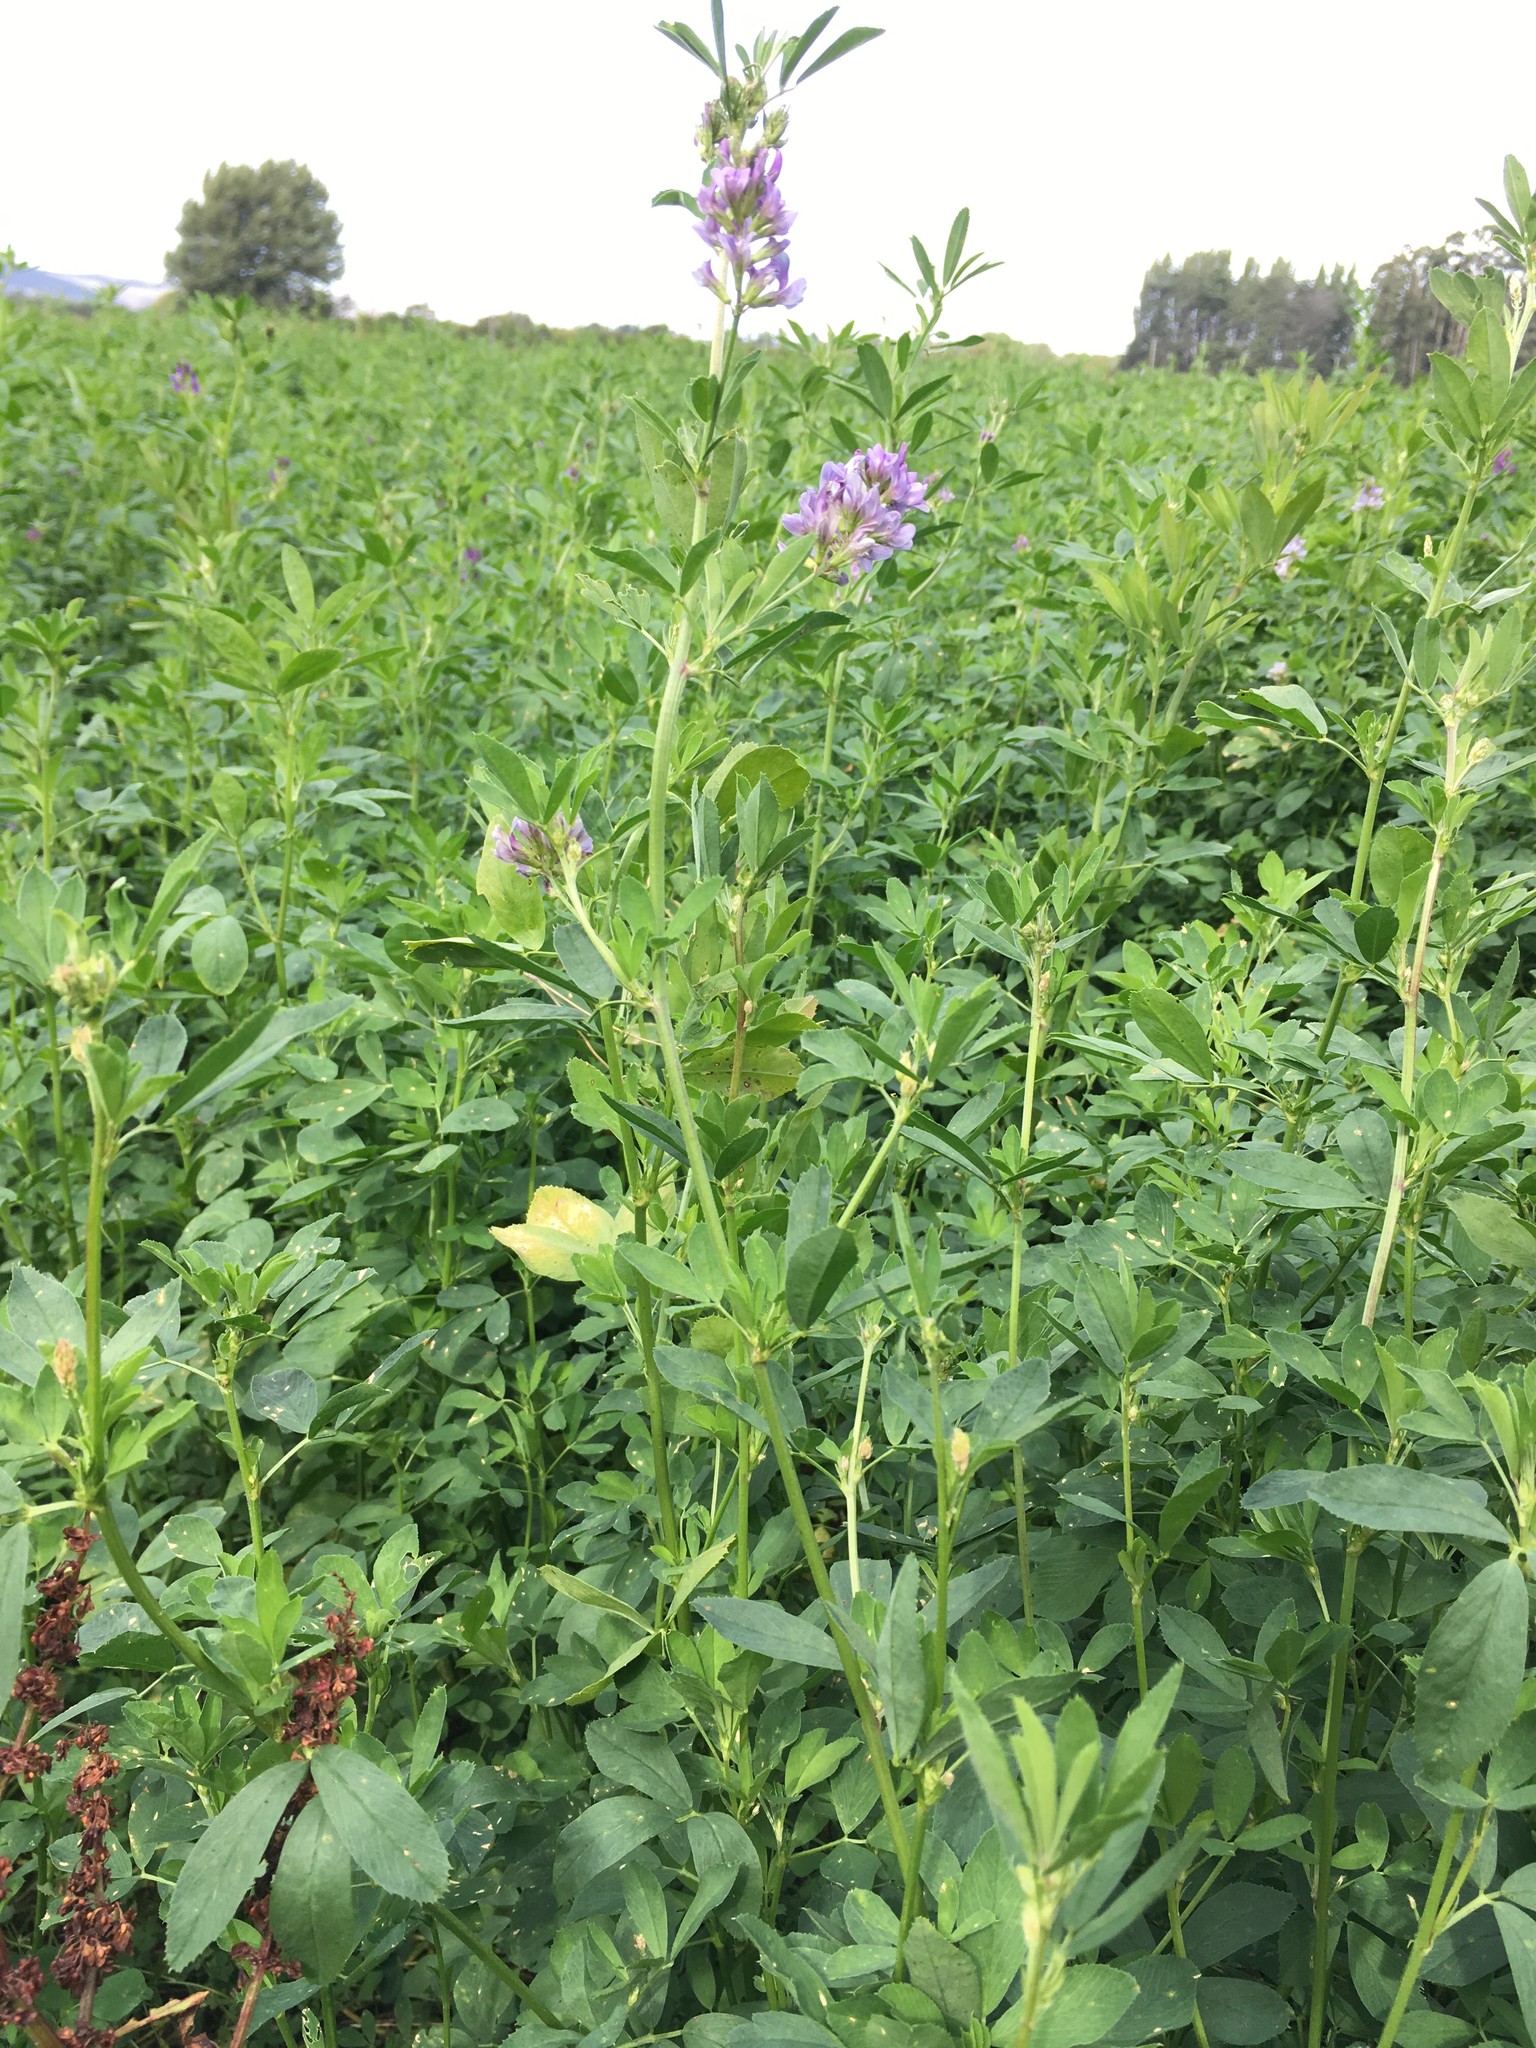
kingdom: Plantae
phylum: Tracheophyta
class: Magnoliopsida
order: Fabales
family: Fabaceae
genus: Medicago
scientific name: Medicago sativa
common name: Alfalfa
